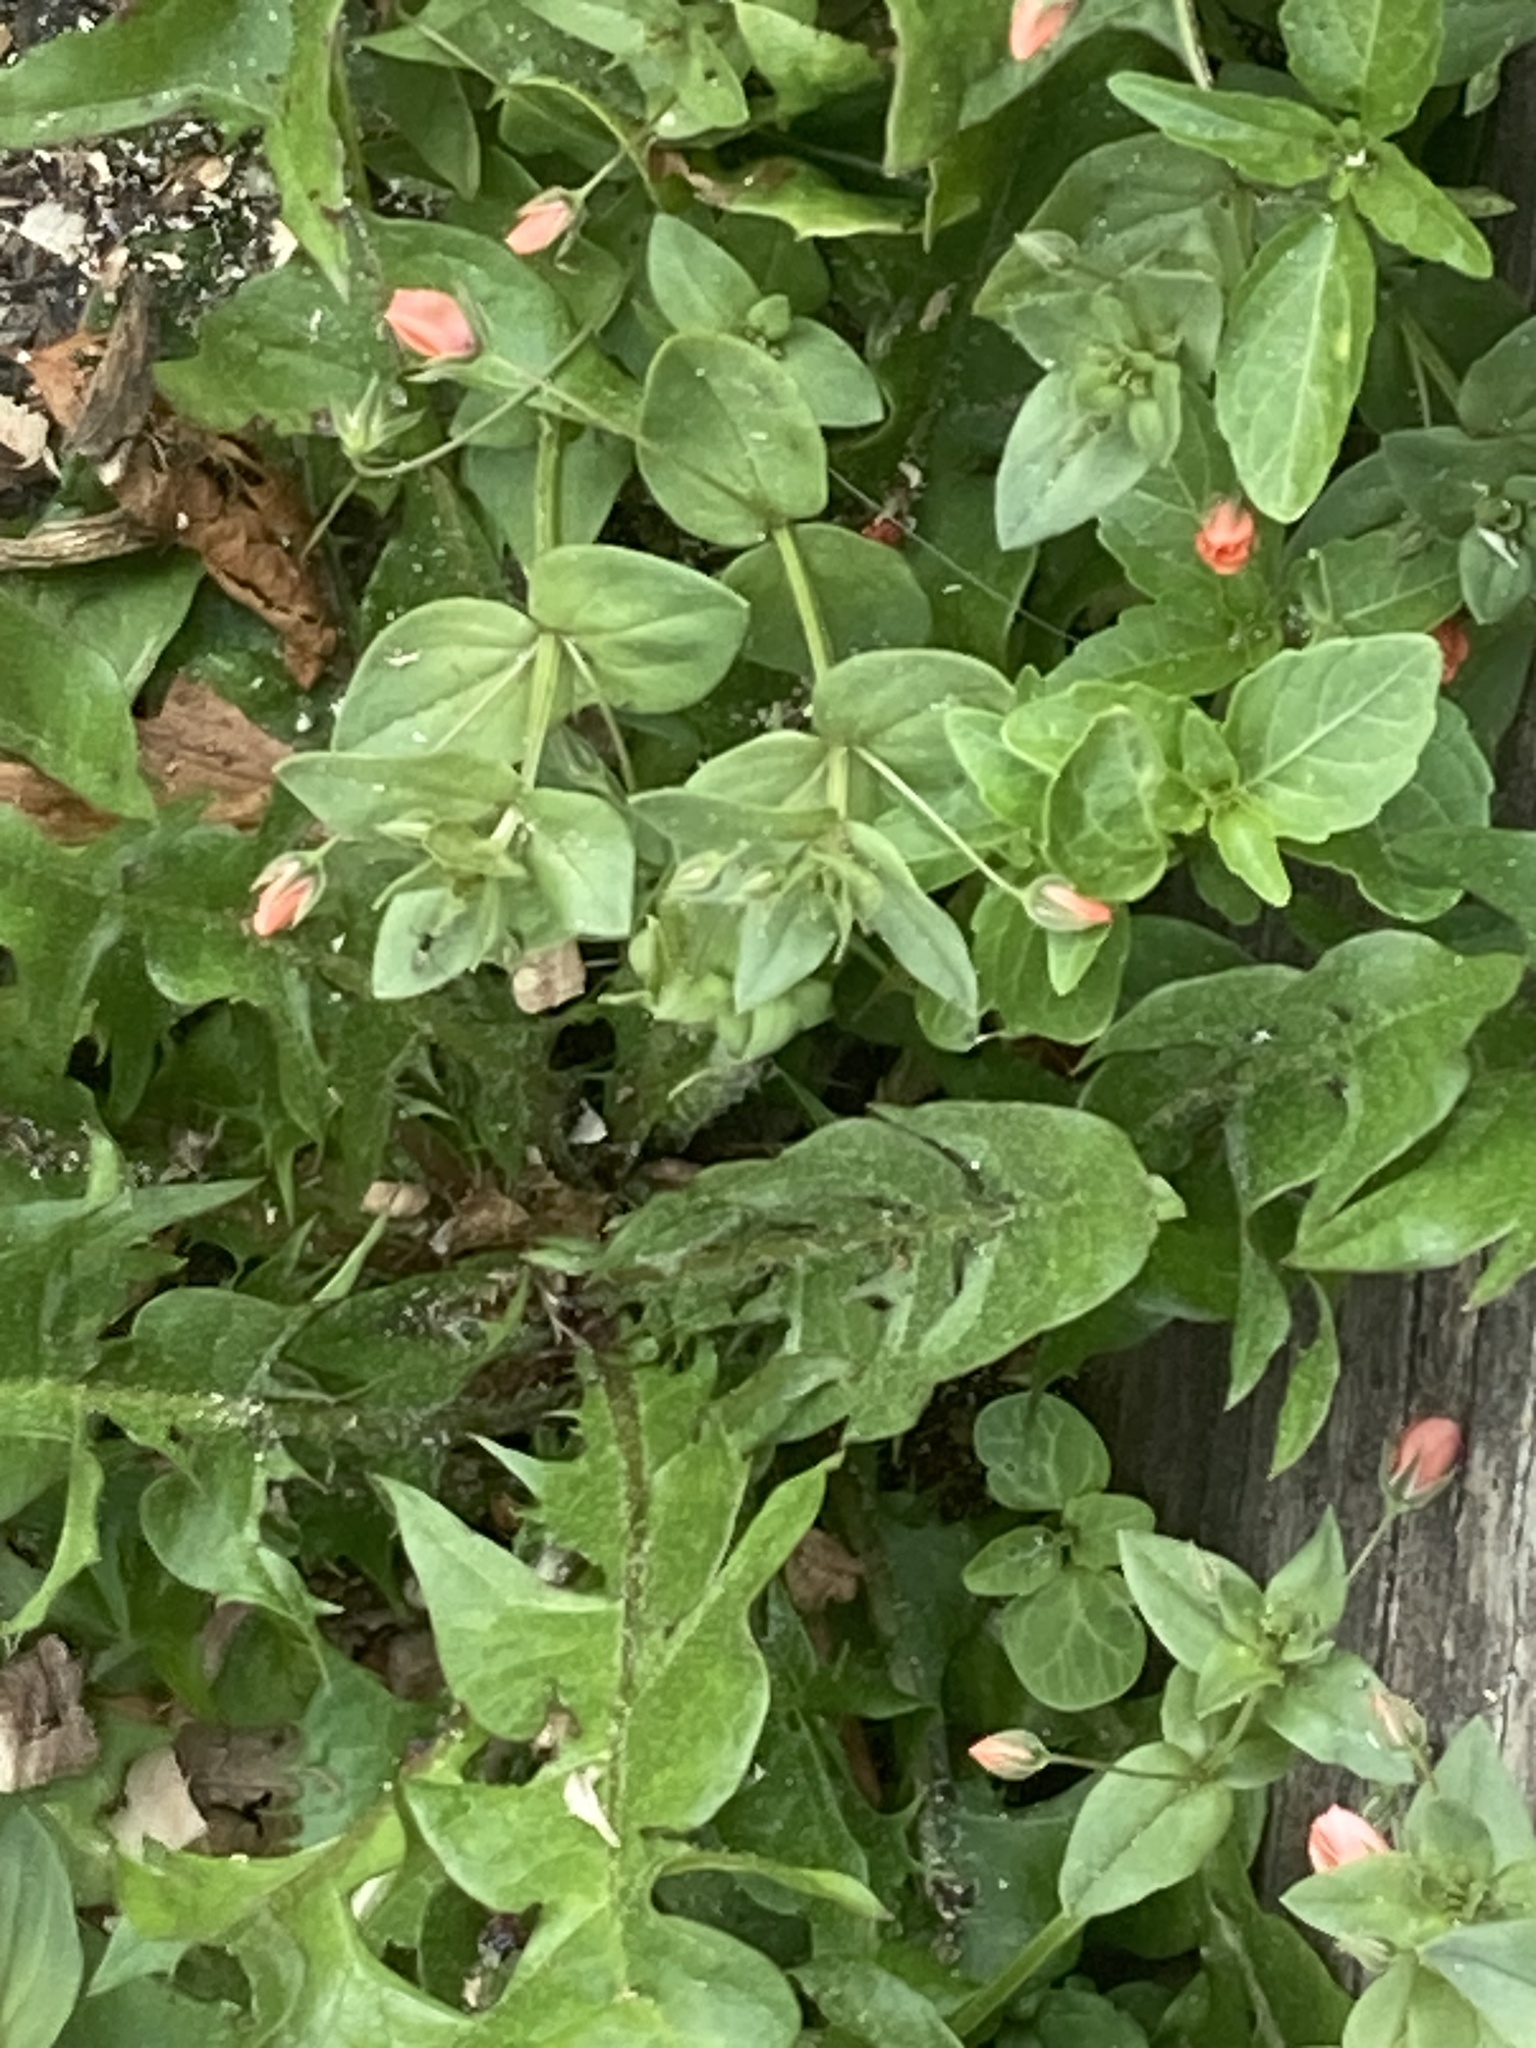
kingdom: Plantae
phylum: Tracheophyta
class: Magnoliopsida
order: Ericales
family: Primulaceae
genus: Lysimachia
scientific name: Lysimachia arvensis
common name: Scarlet pimpernel
